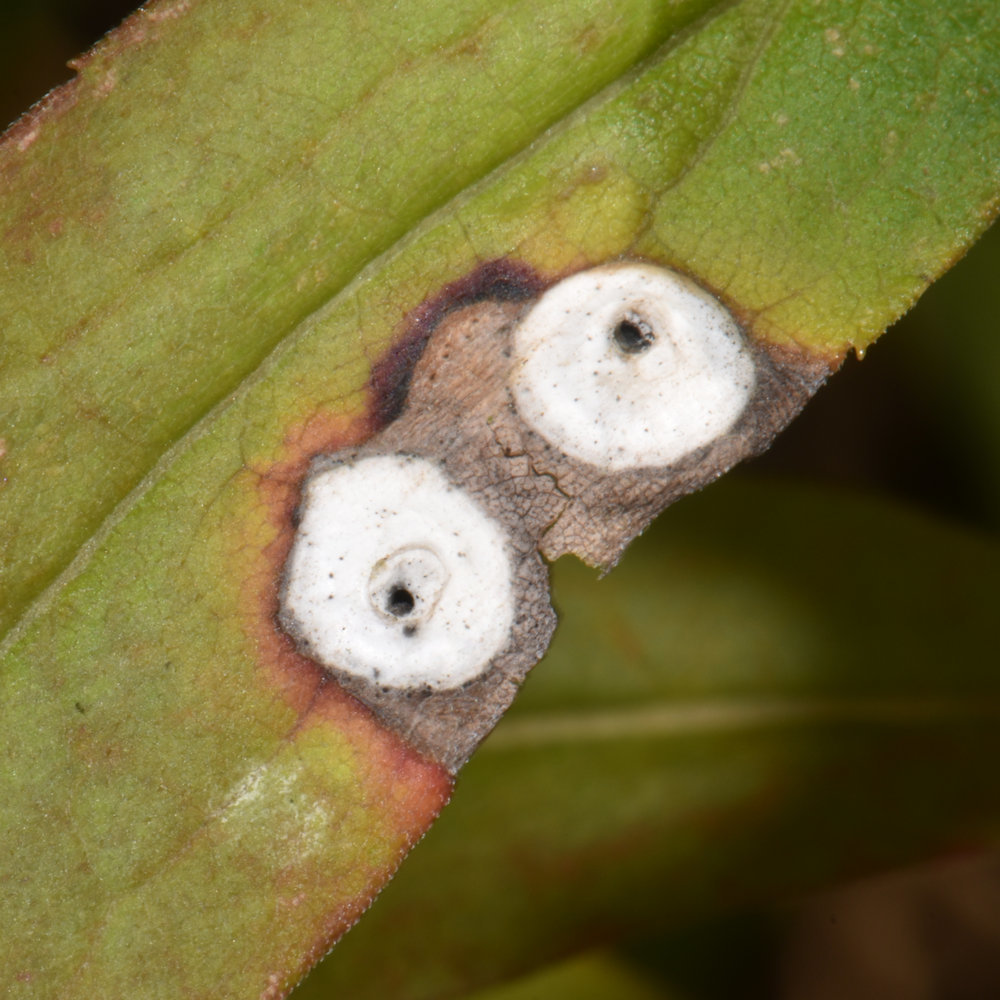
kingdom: Animalia
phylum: Arthropoda
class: Insecta
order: Diptera
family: Cecidomyiidae
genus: Asteromyia
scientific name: Asteromyia carbonifera
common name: Carbonifera goldenrod gall midge
